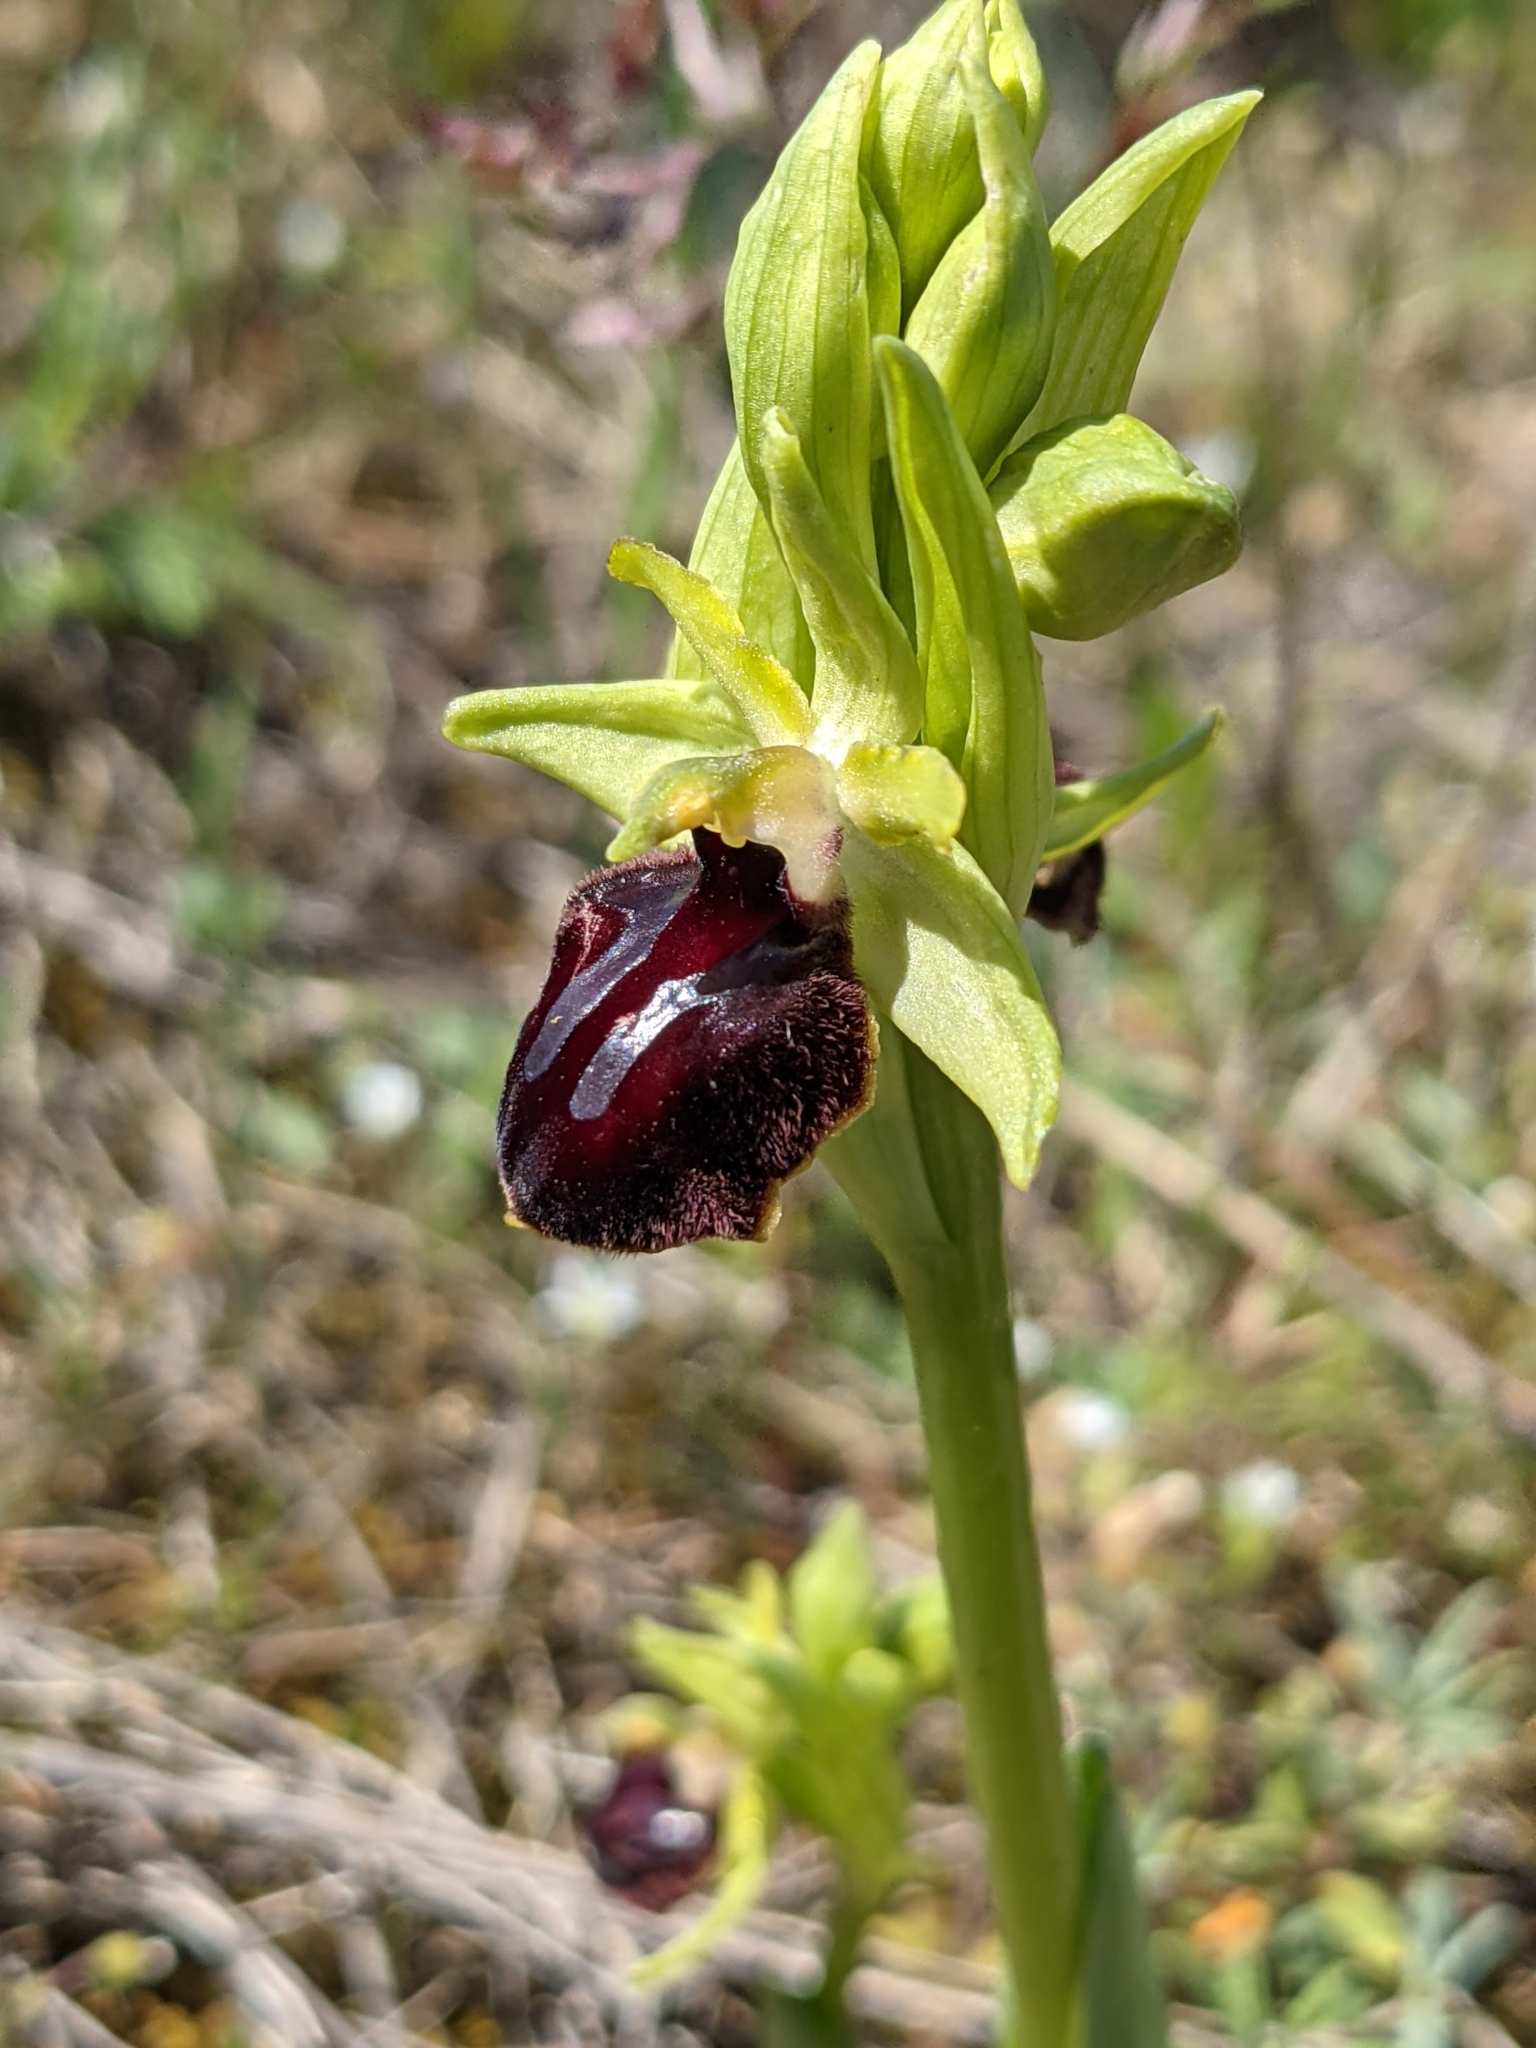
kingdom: Plantae
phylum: Tracheophyta
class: Liliopsida
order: Asparagales
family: Orchidaceae
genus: Ophrys
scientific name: Ophrys sphegodes
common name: Early spider-orchid
